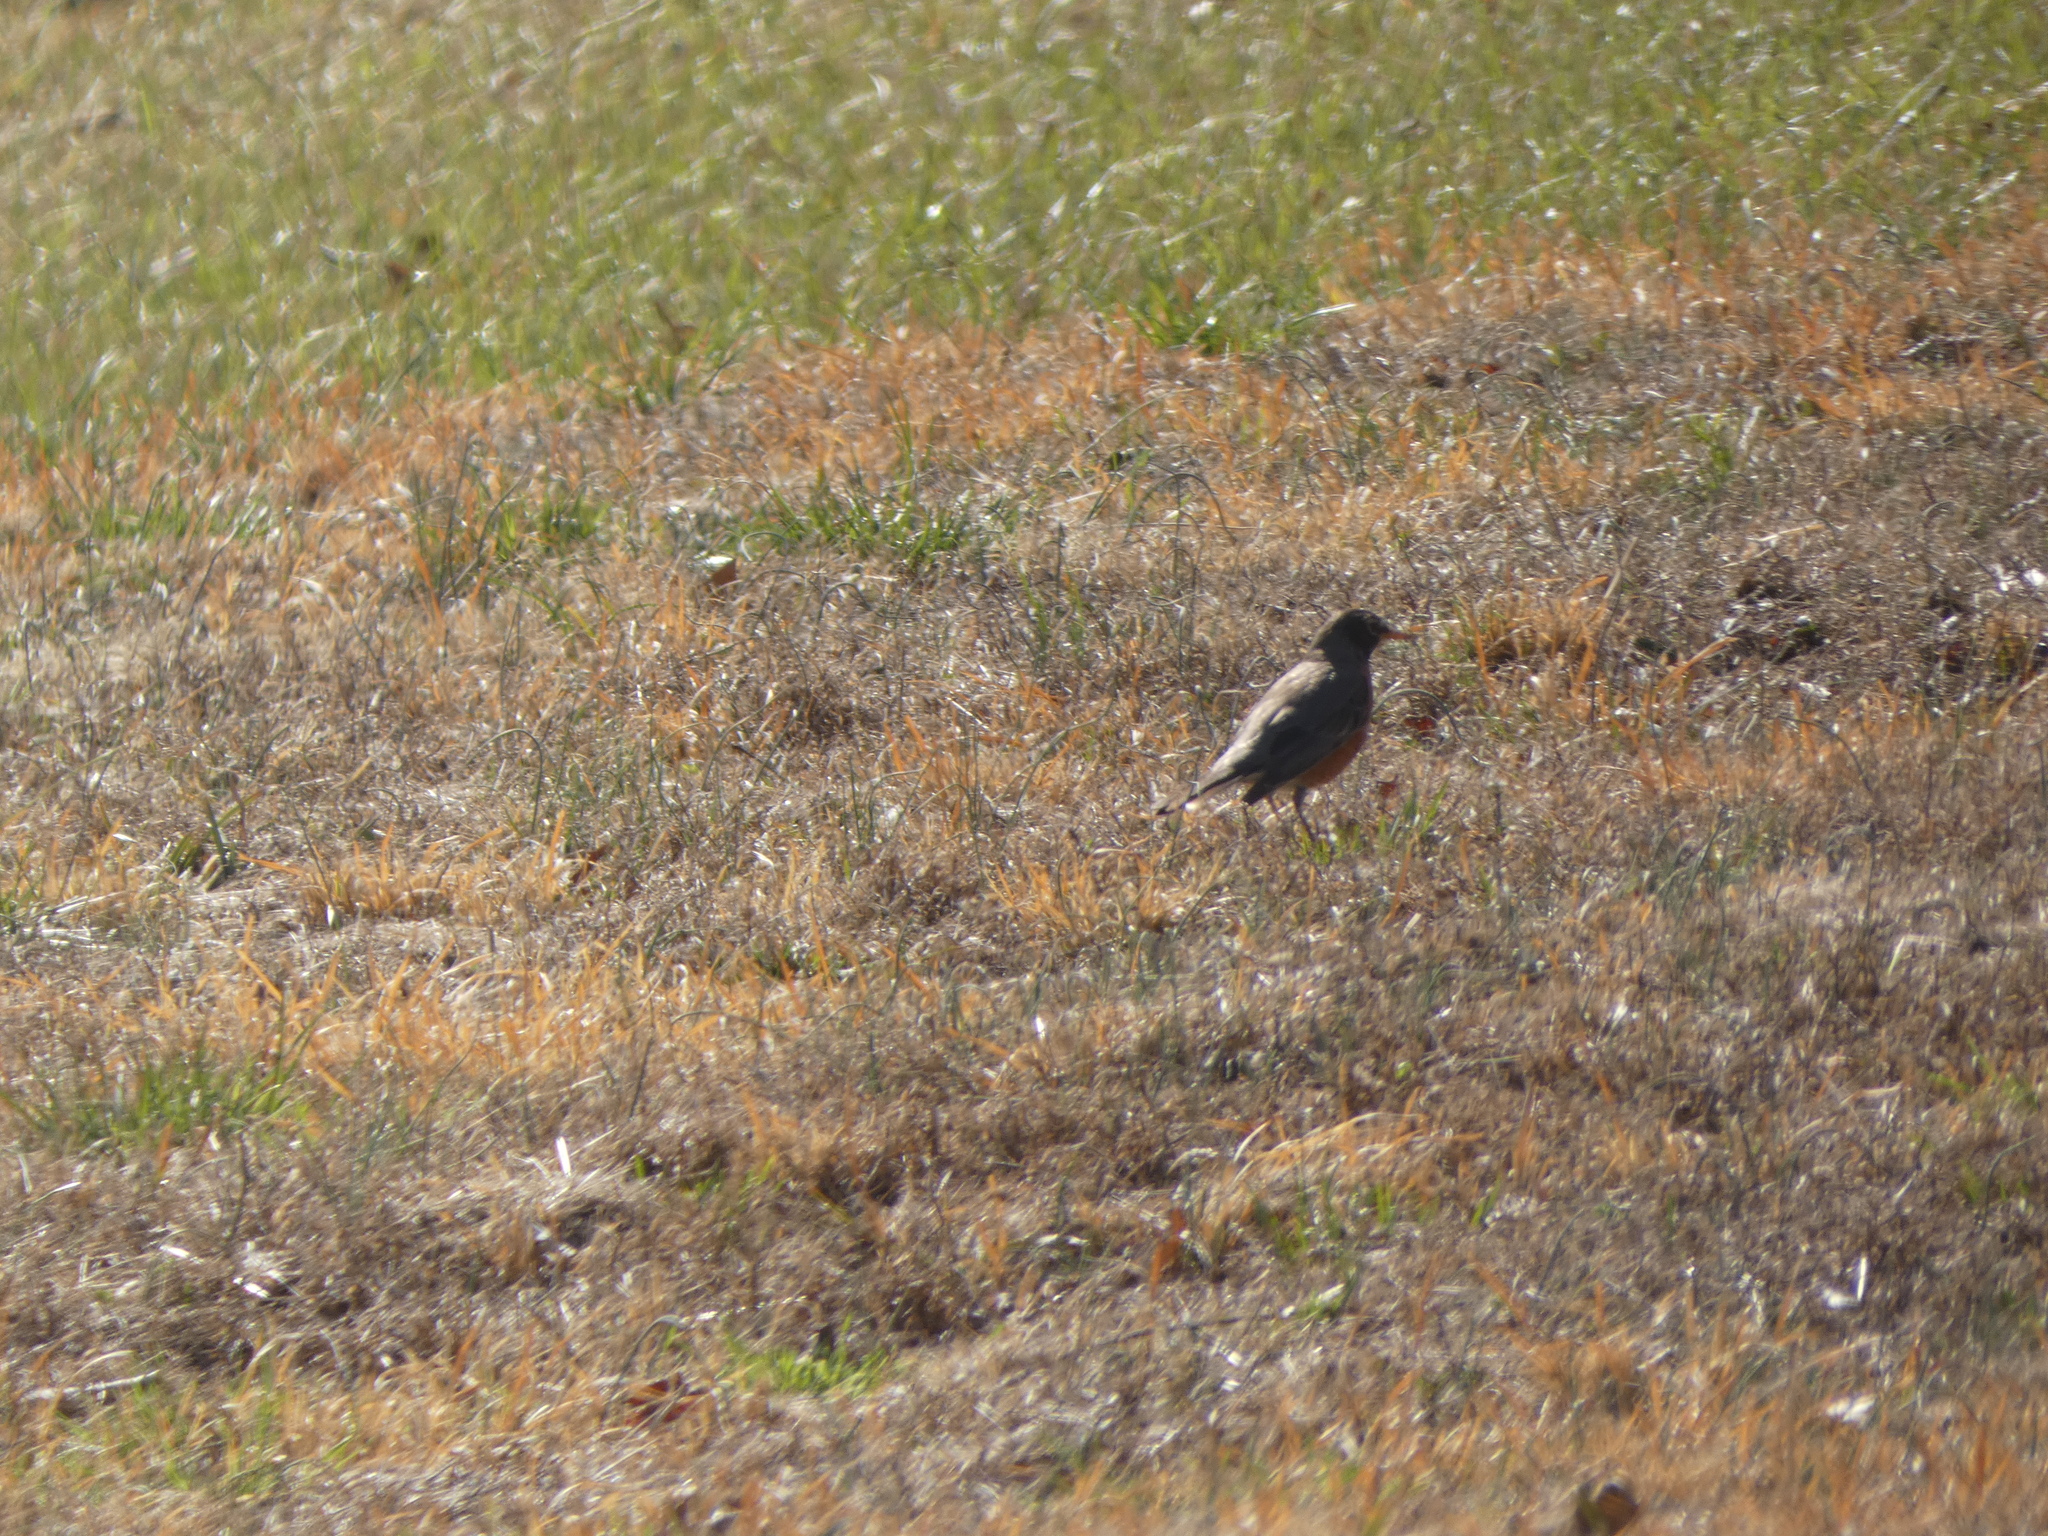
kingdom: Animalia
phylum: Chordata
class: Aves
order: Passeriformes
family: Turdidae
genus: Turdus
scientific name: Turdus migratorius
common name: American robin
